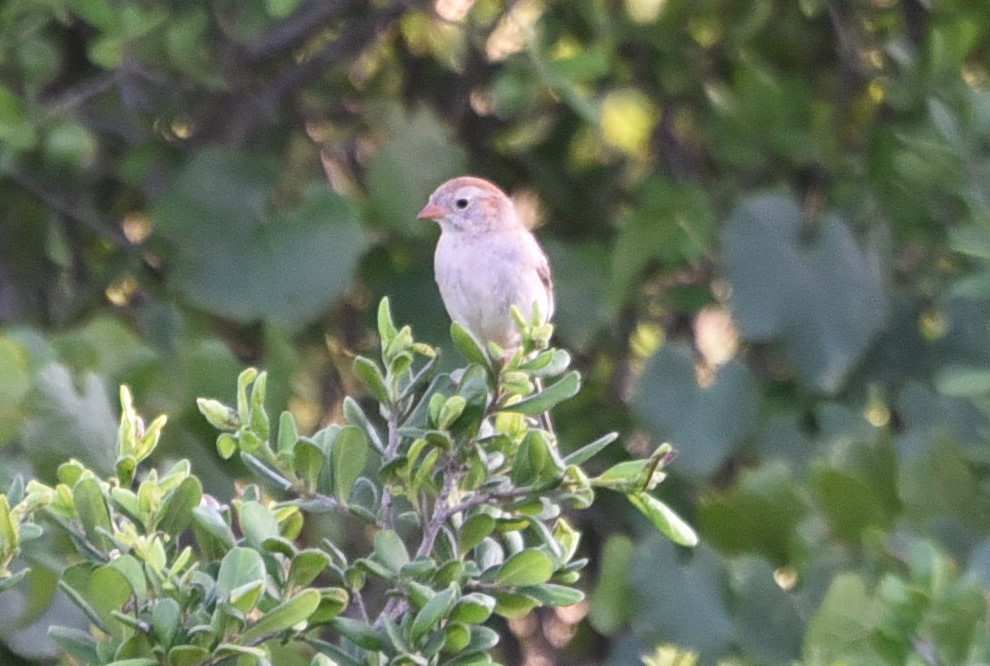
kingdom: Animalia
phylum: Chordata
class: Aves
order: Passeriformes
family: Passerellidae
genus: Spizella
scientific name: Spizella pusilla
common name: Field sparrow
